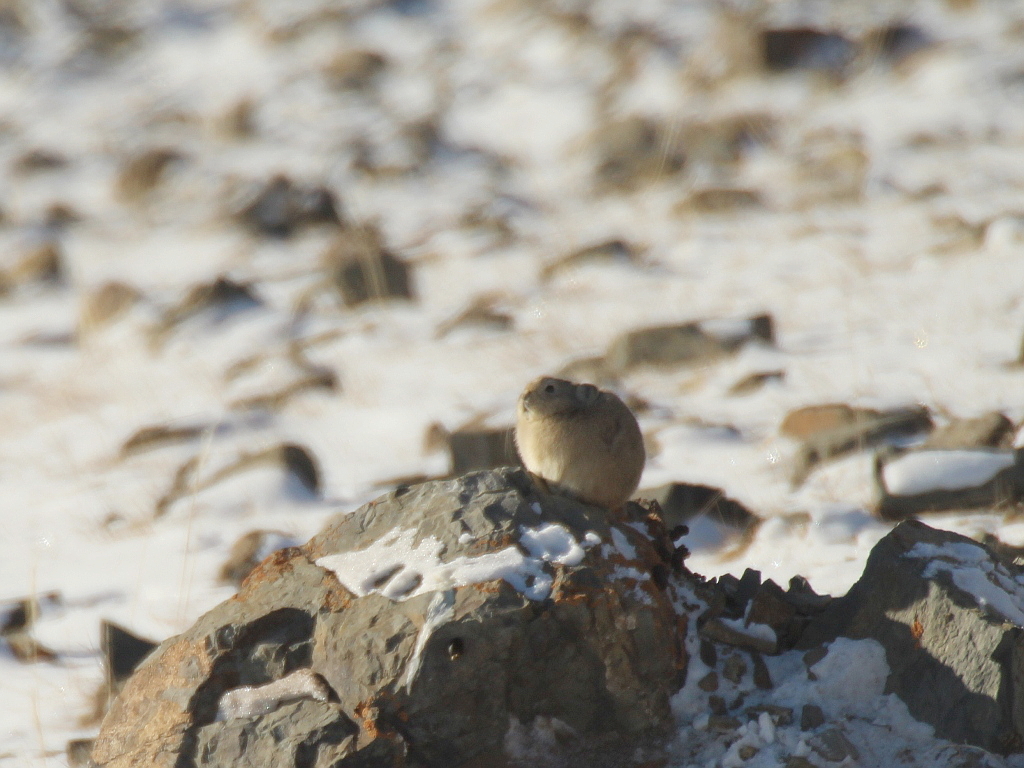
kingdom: Animalia
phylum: Chordata
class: Mammalia
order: Lagomorpha
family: Ochotonidae
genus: Ochotona
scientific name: Ochotona pallasi
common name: Mongolian pika
